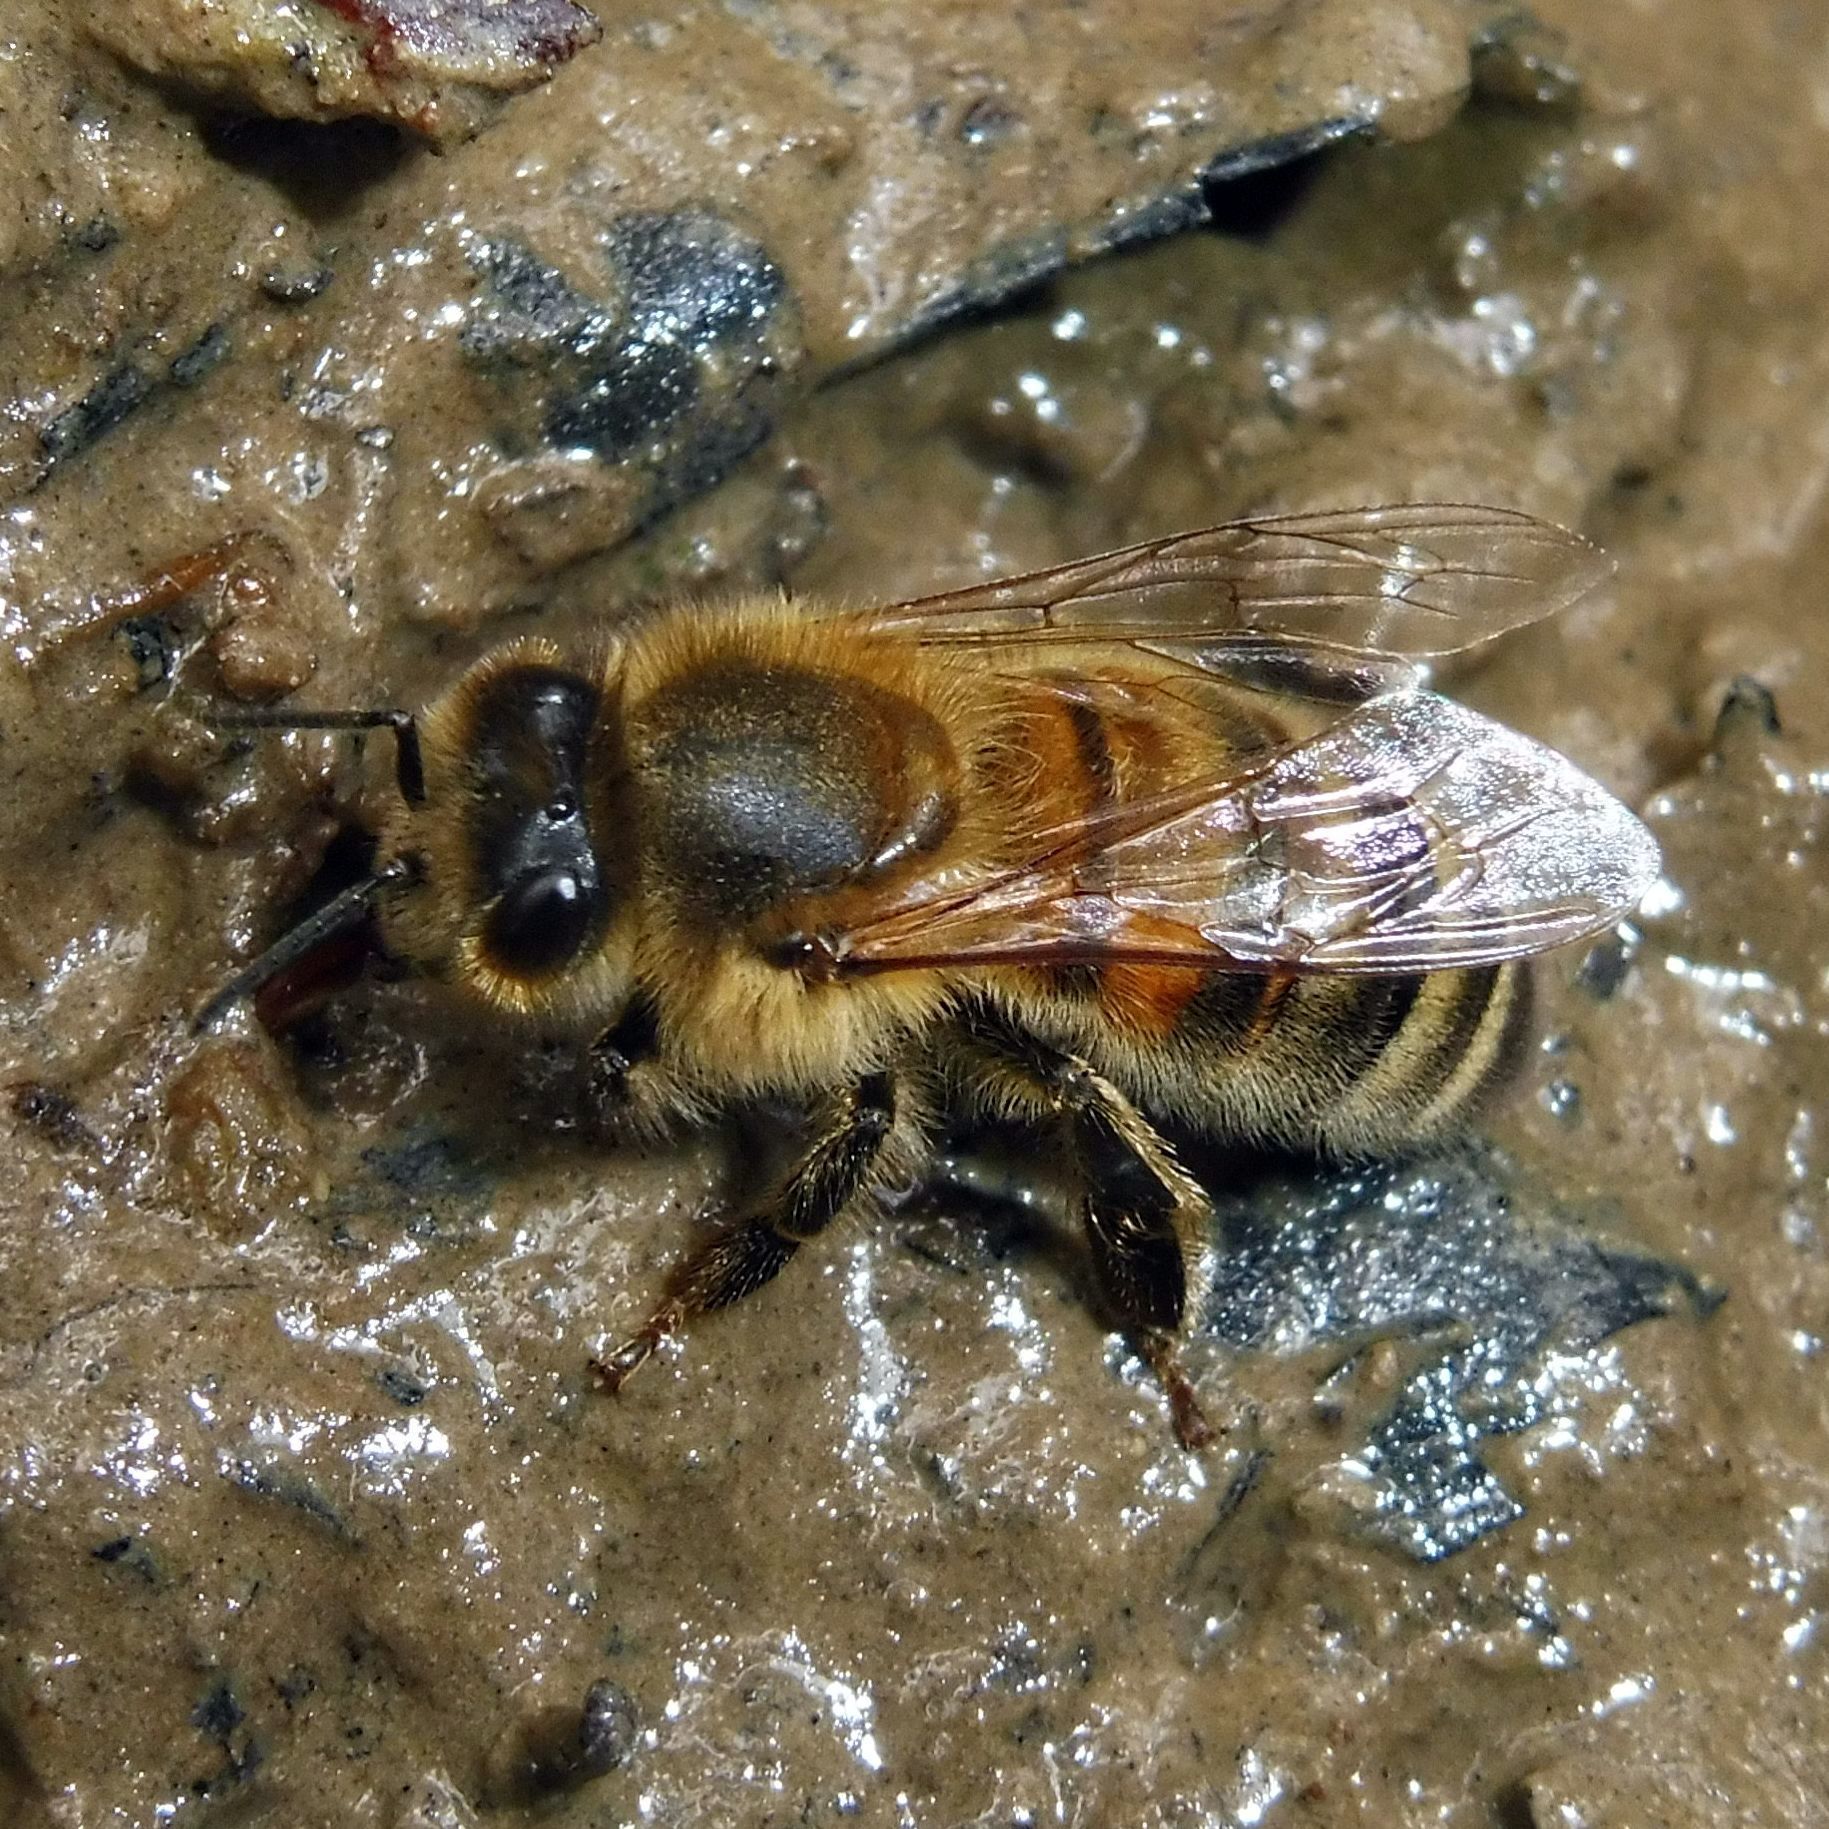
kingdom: Animalia
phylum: Arthropoda
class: Insecta
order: Hymenoptera
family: Apidae
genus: Apis
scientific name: Apis mellifera
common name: Honey bee
